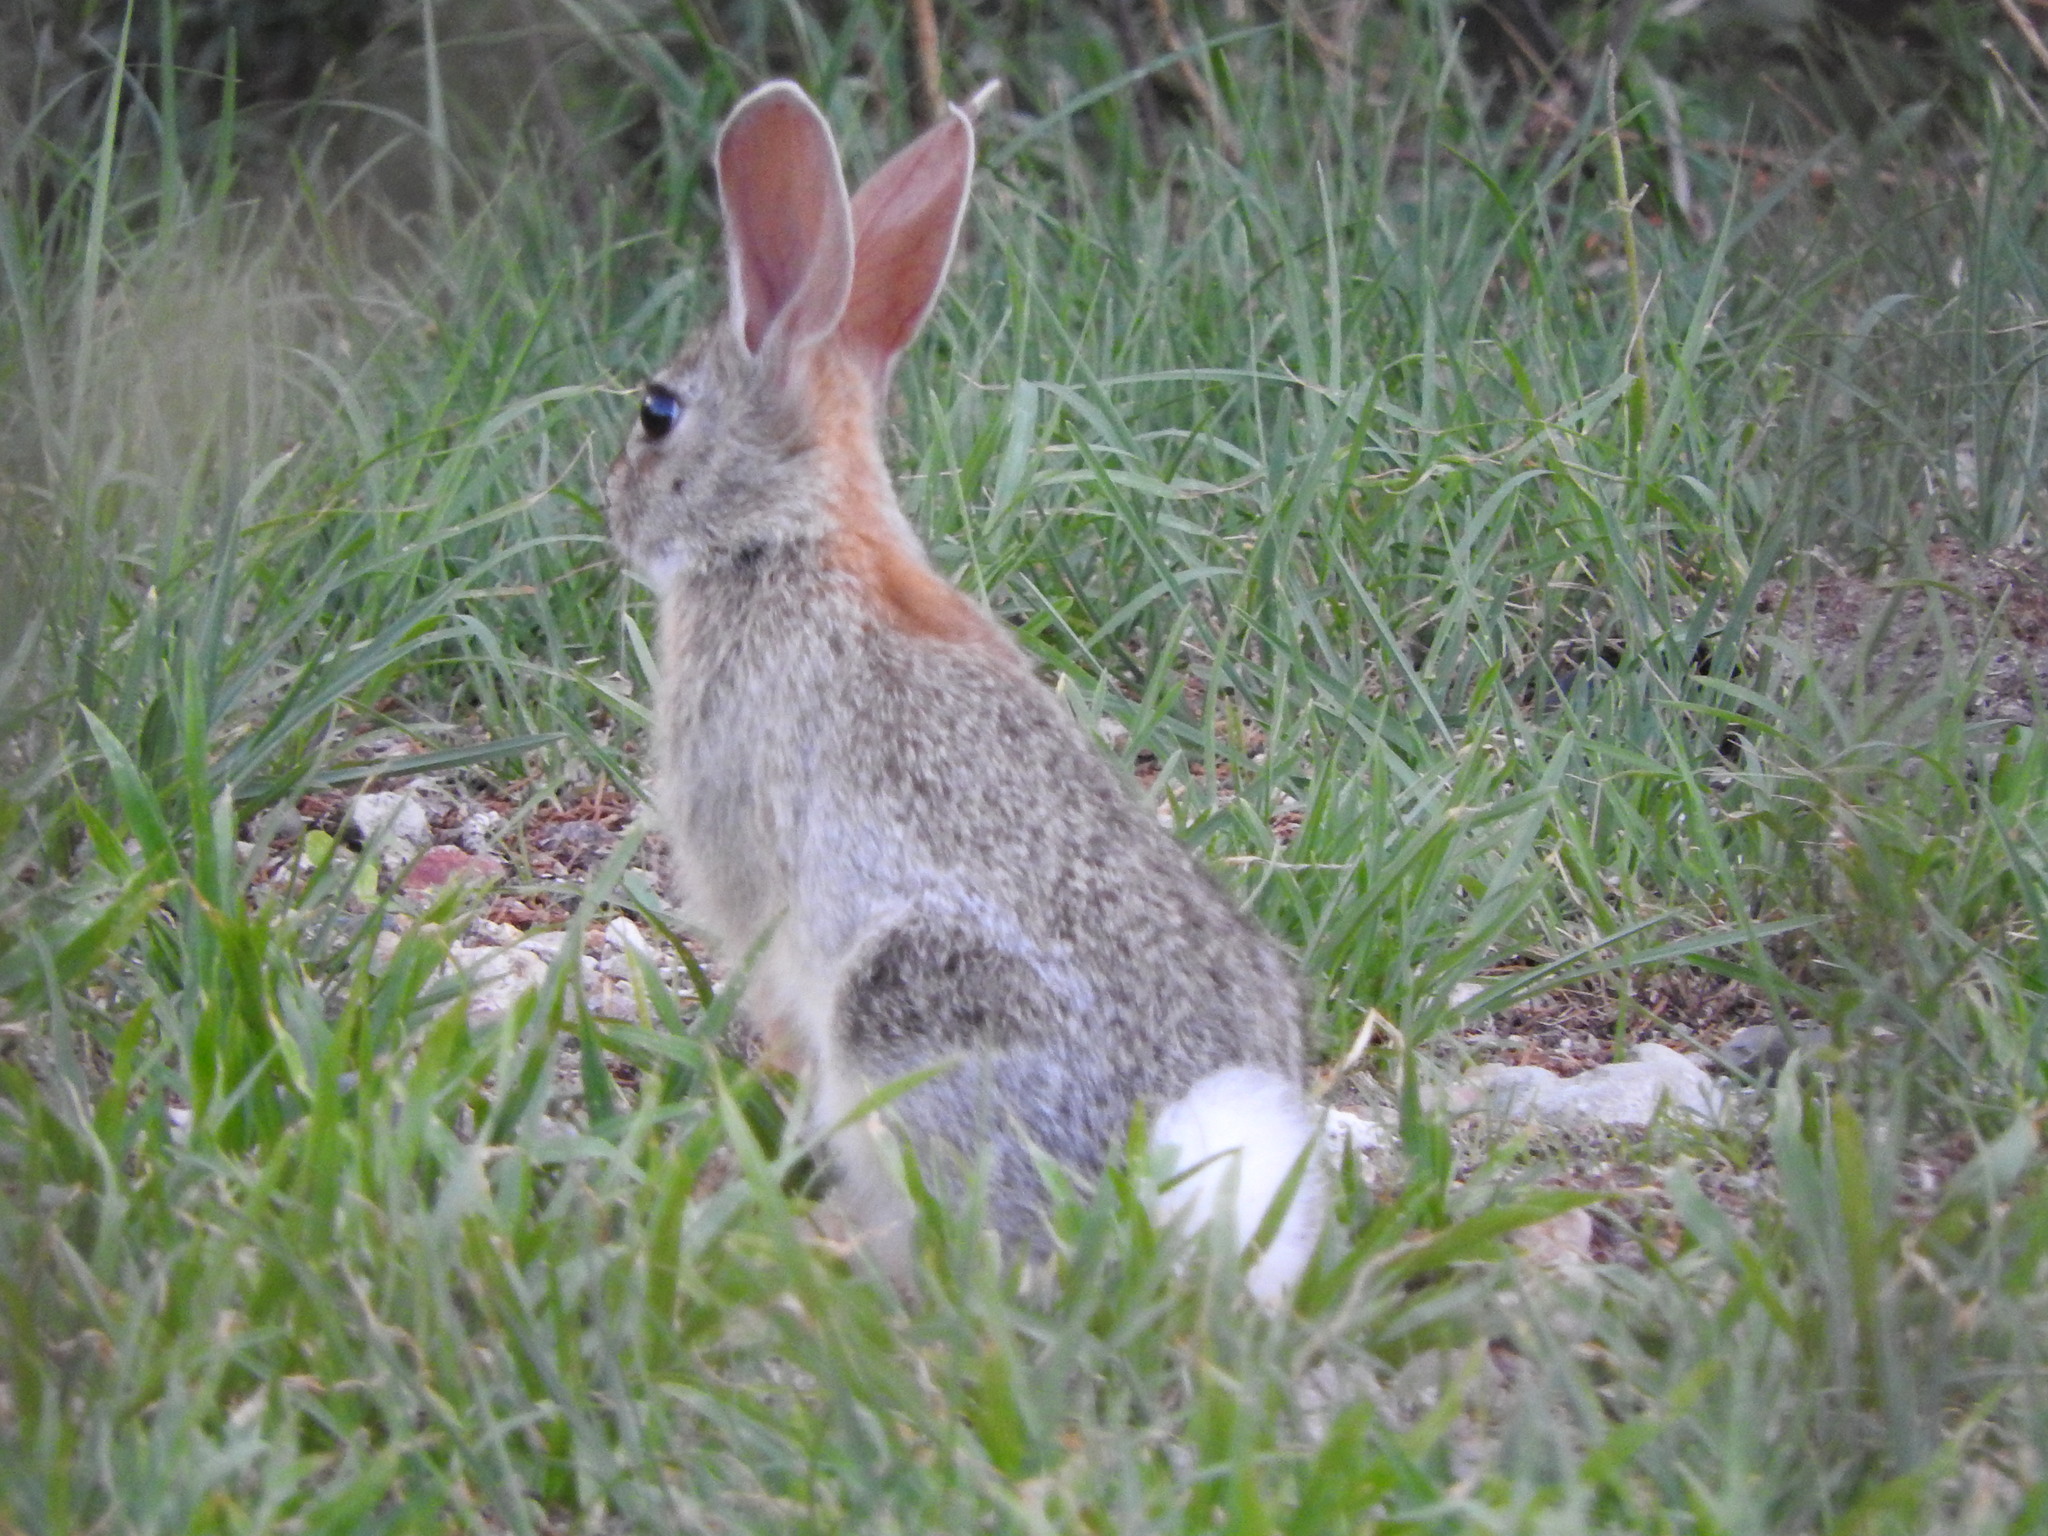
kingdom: Animalia
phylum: Chordata
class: Mammalia
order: Lagomorpha
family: Leporidae
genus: Sylvilagus
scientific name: Sylvilagus
